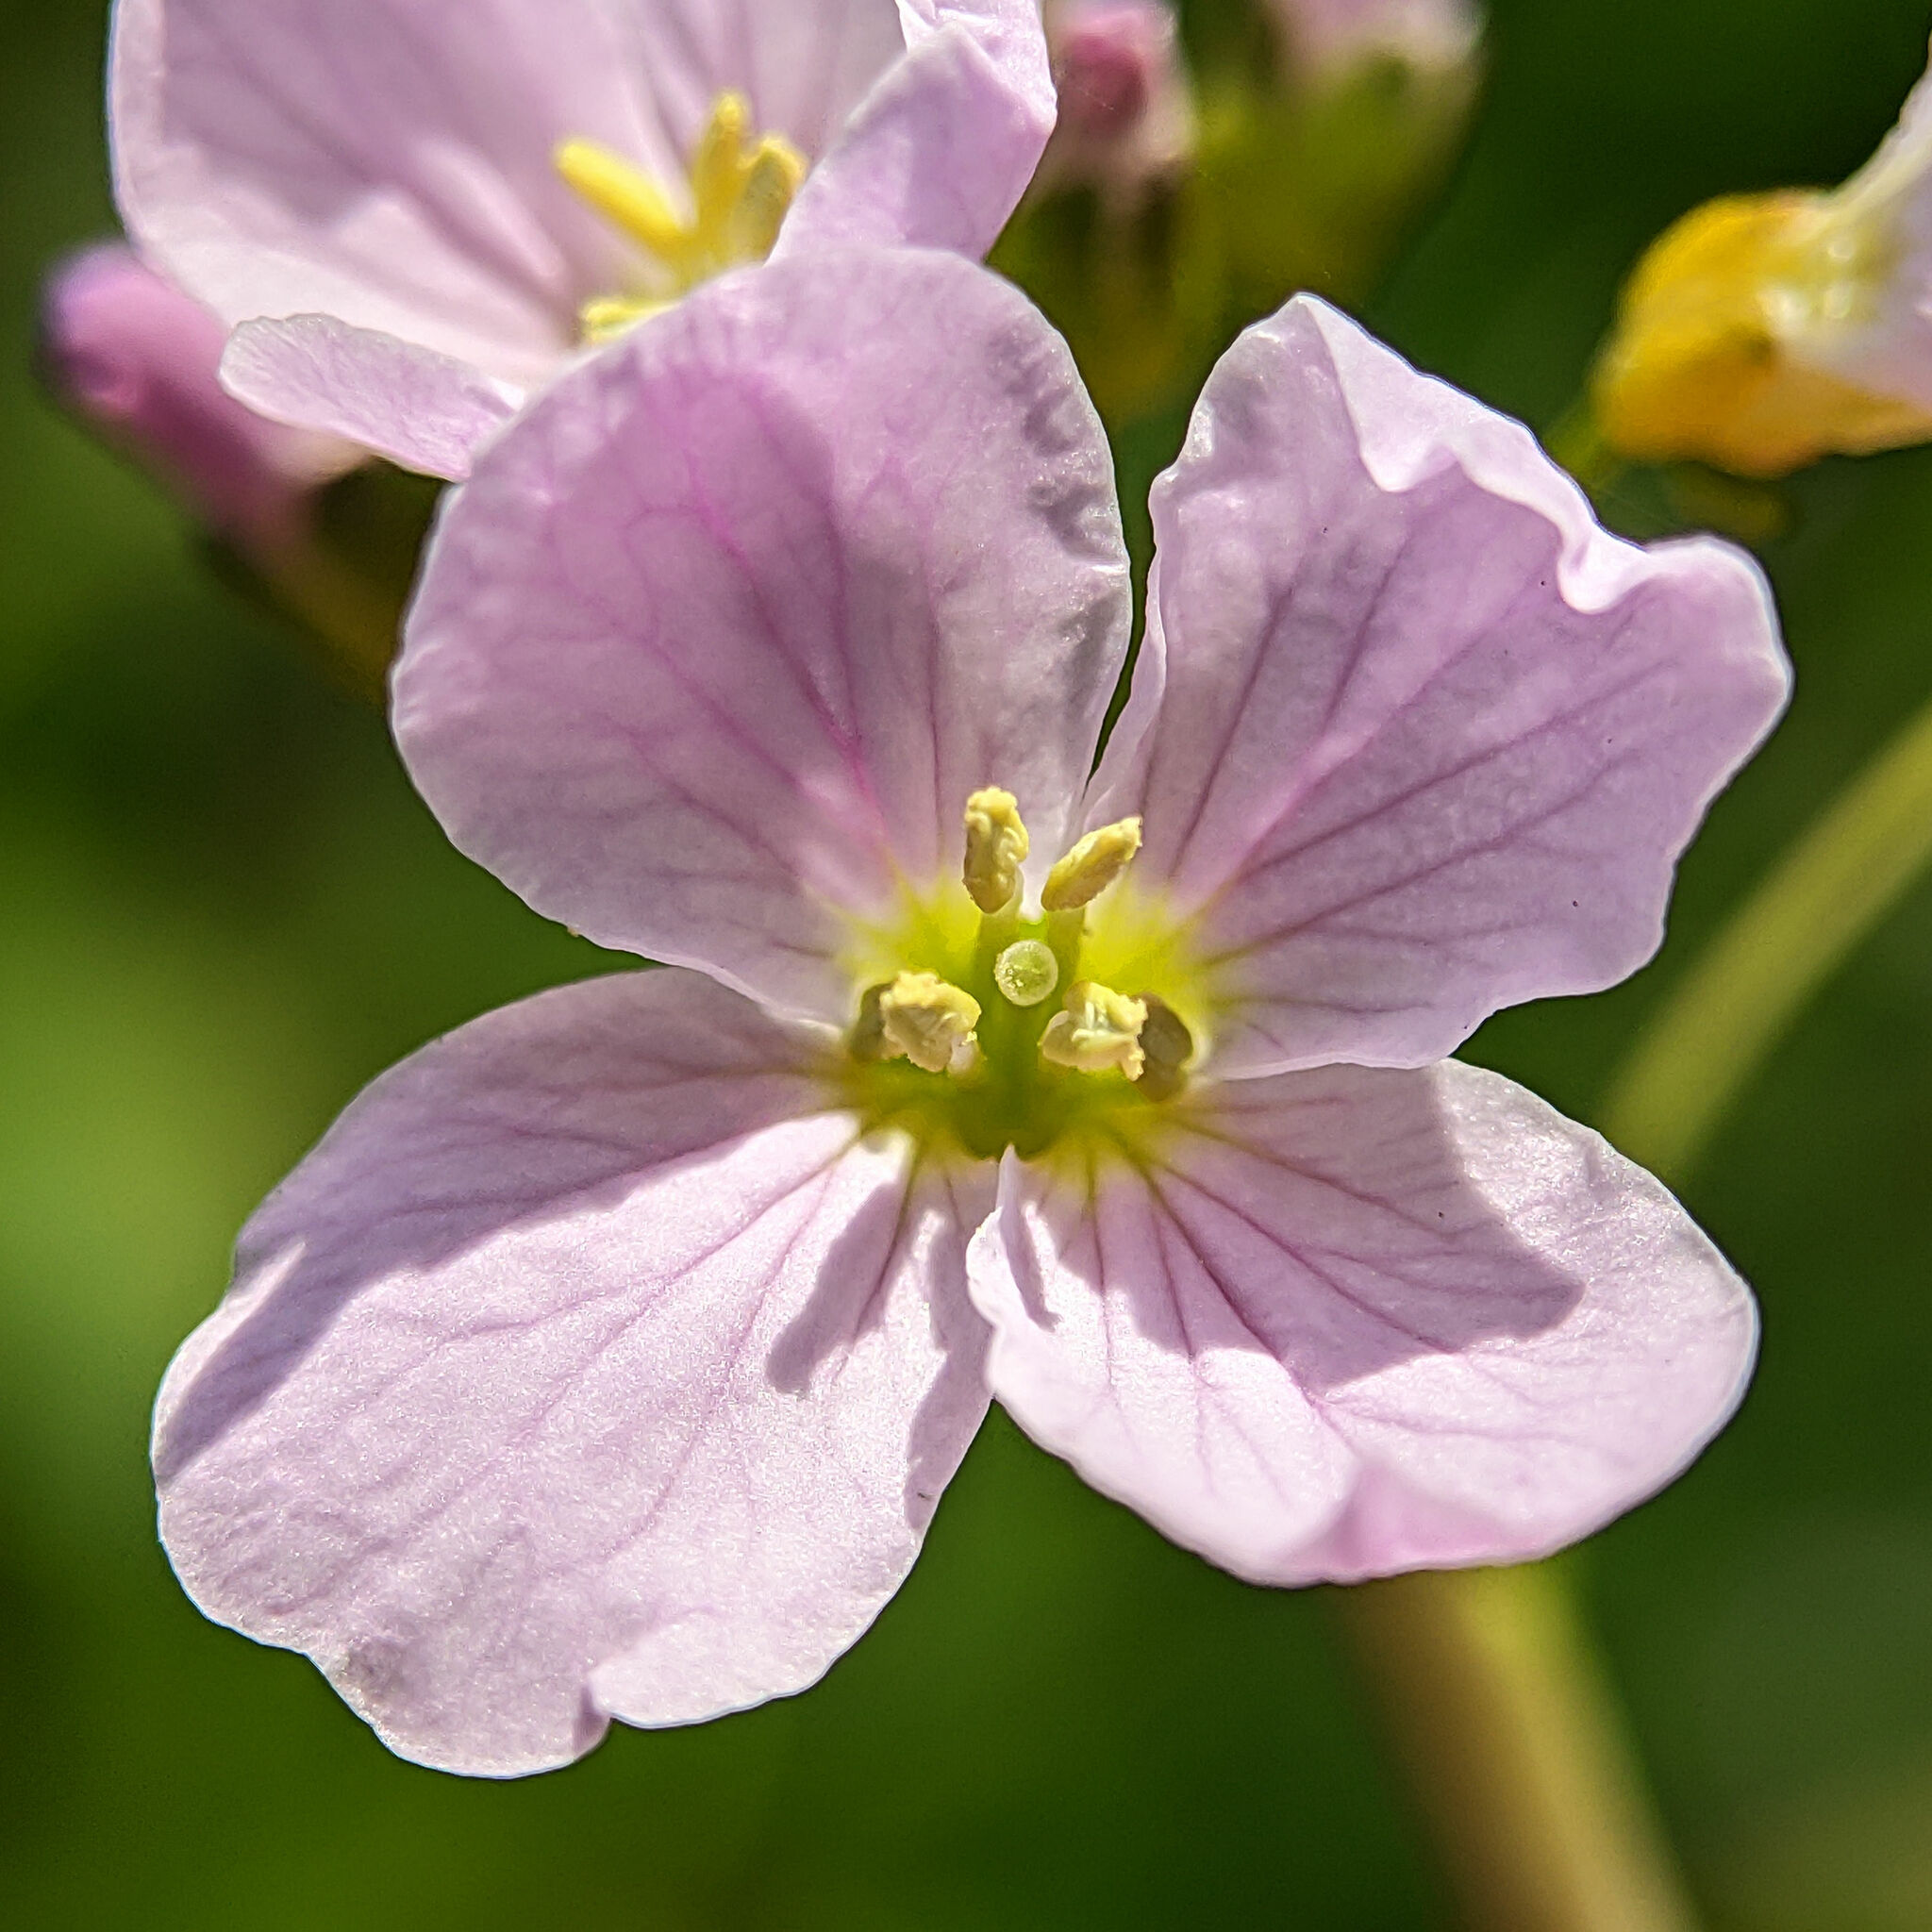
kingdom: Plantae
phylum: Tracheophyta
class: Magnoliopsida
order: Brassicales
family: Brassicaceae
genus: Cardamine
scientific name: Cardamine pratensis
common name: Cuckoo flower
